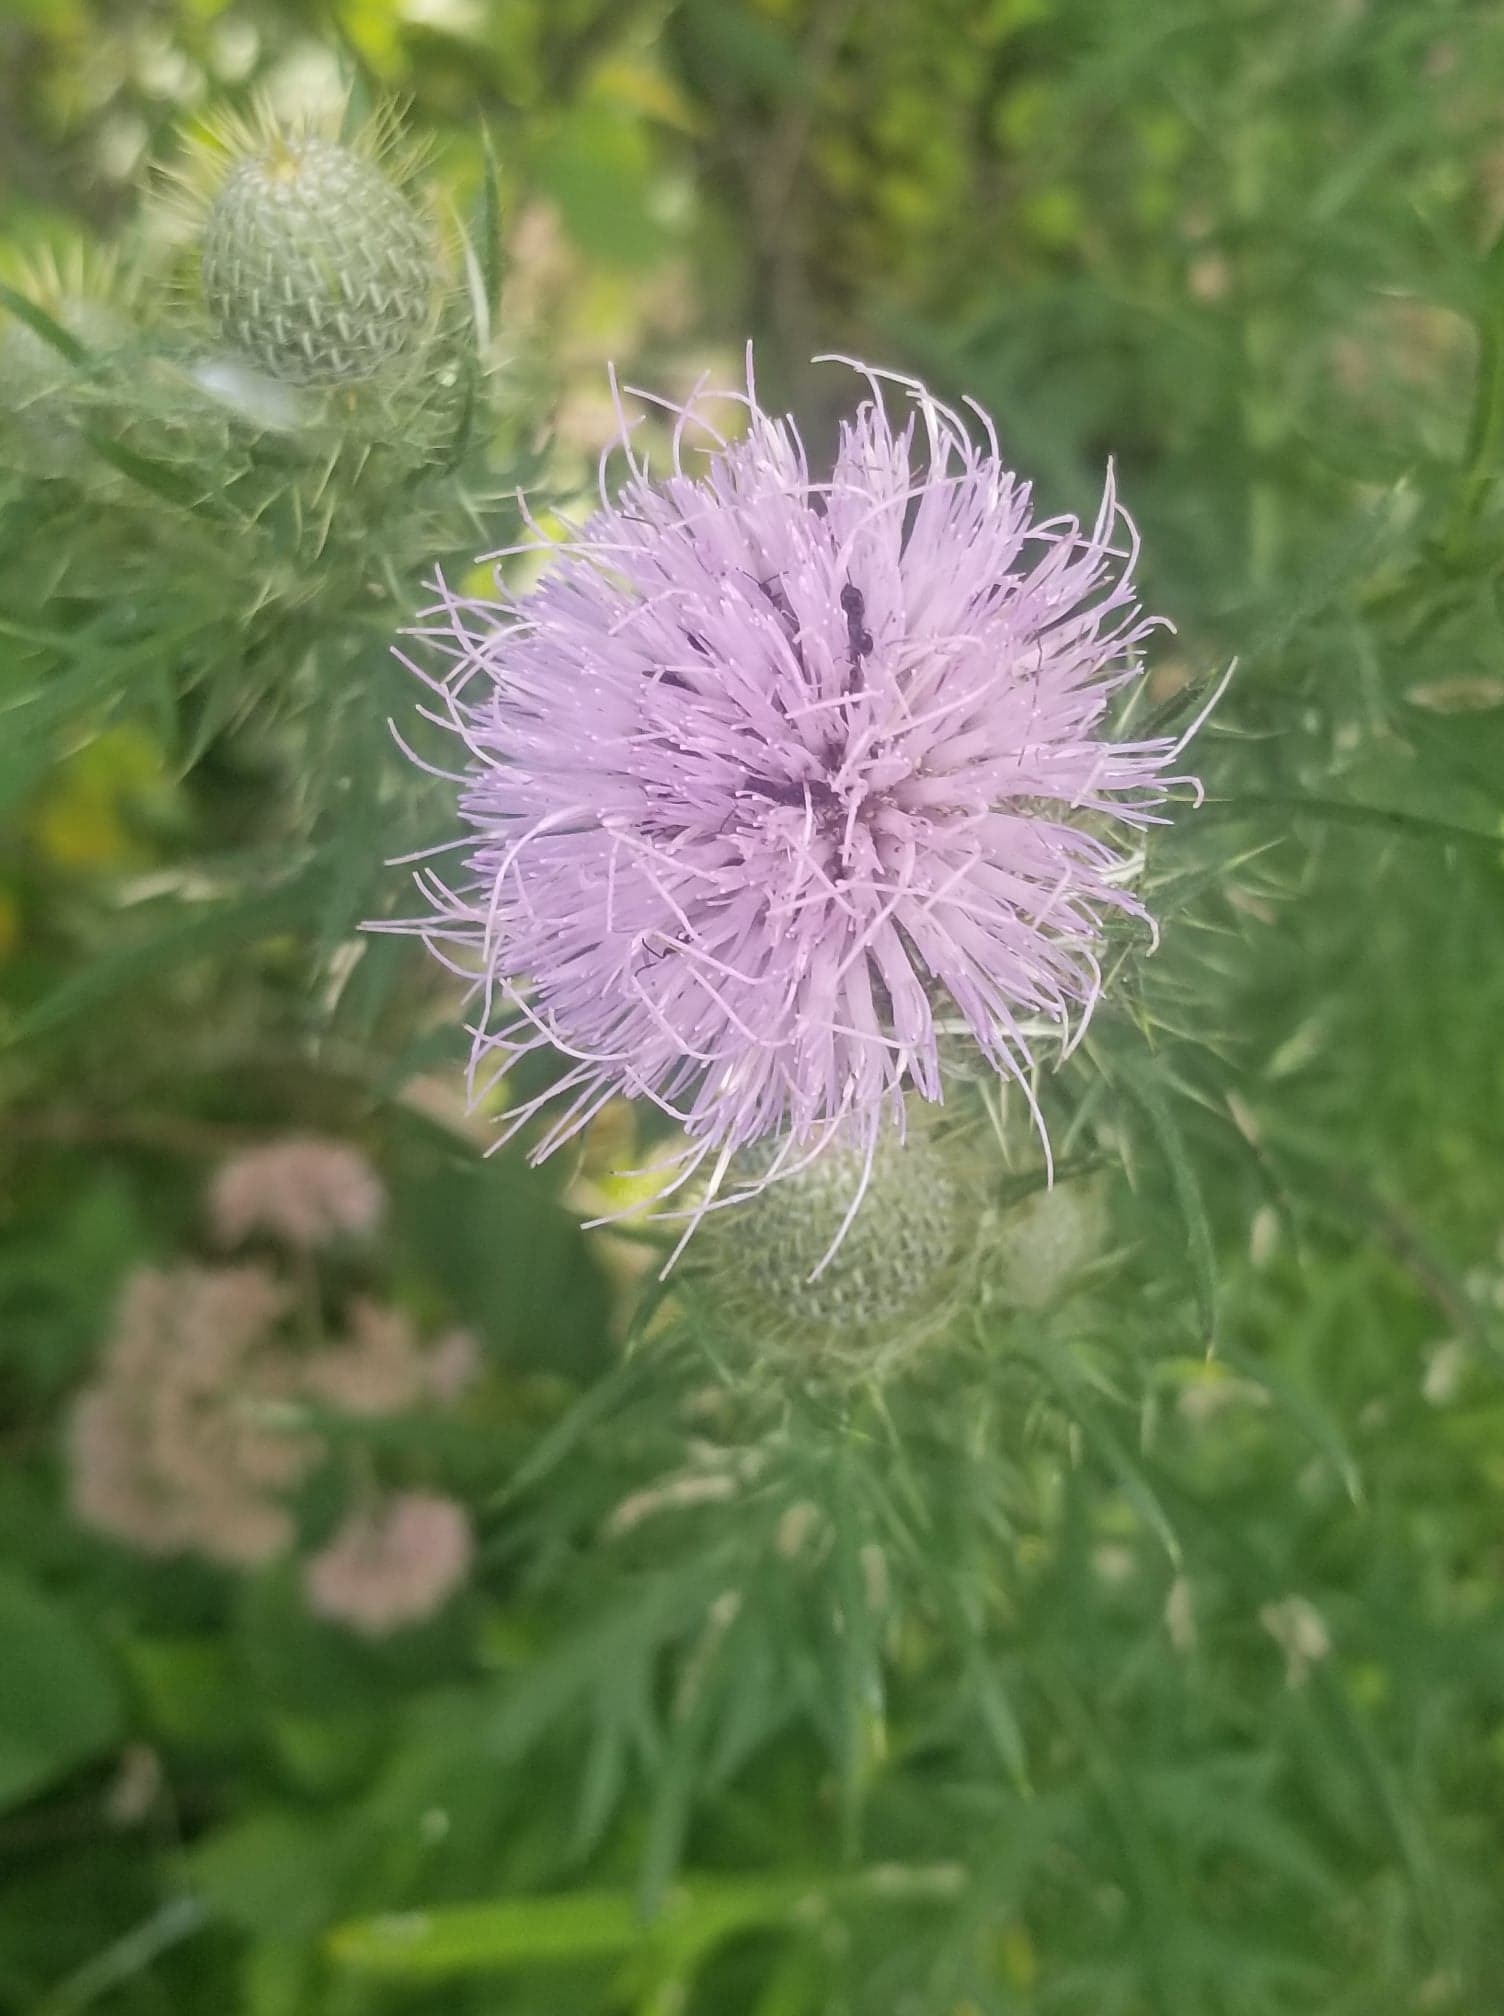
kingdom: Plantae
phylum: Tracheophyta
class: Magnoliopsida
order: Asterales
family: Asteraceae
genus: Cirsium
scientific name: Cirsium discolor
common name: Field thistle
